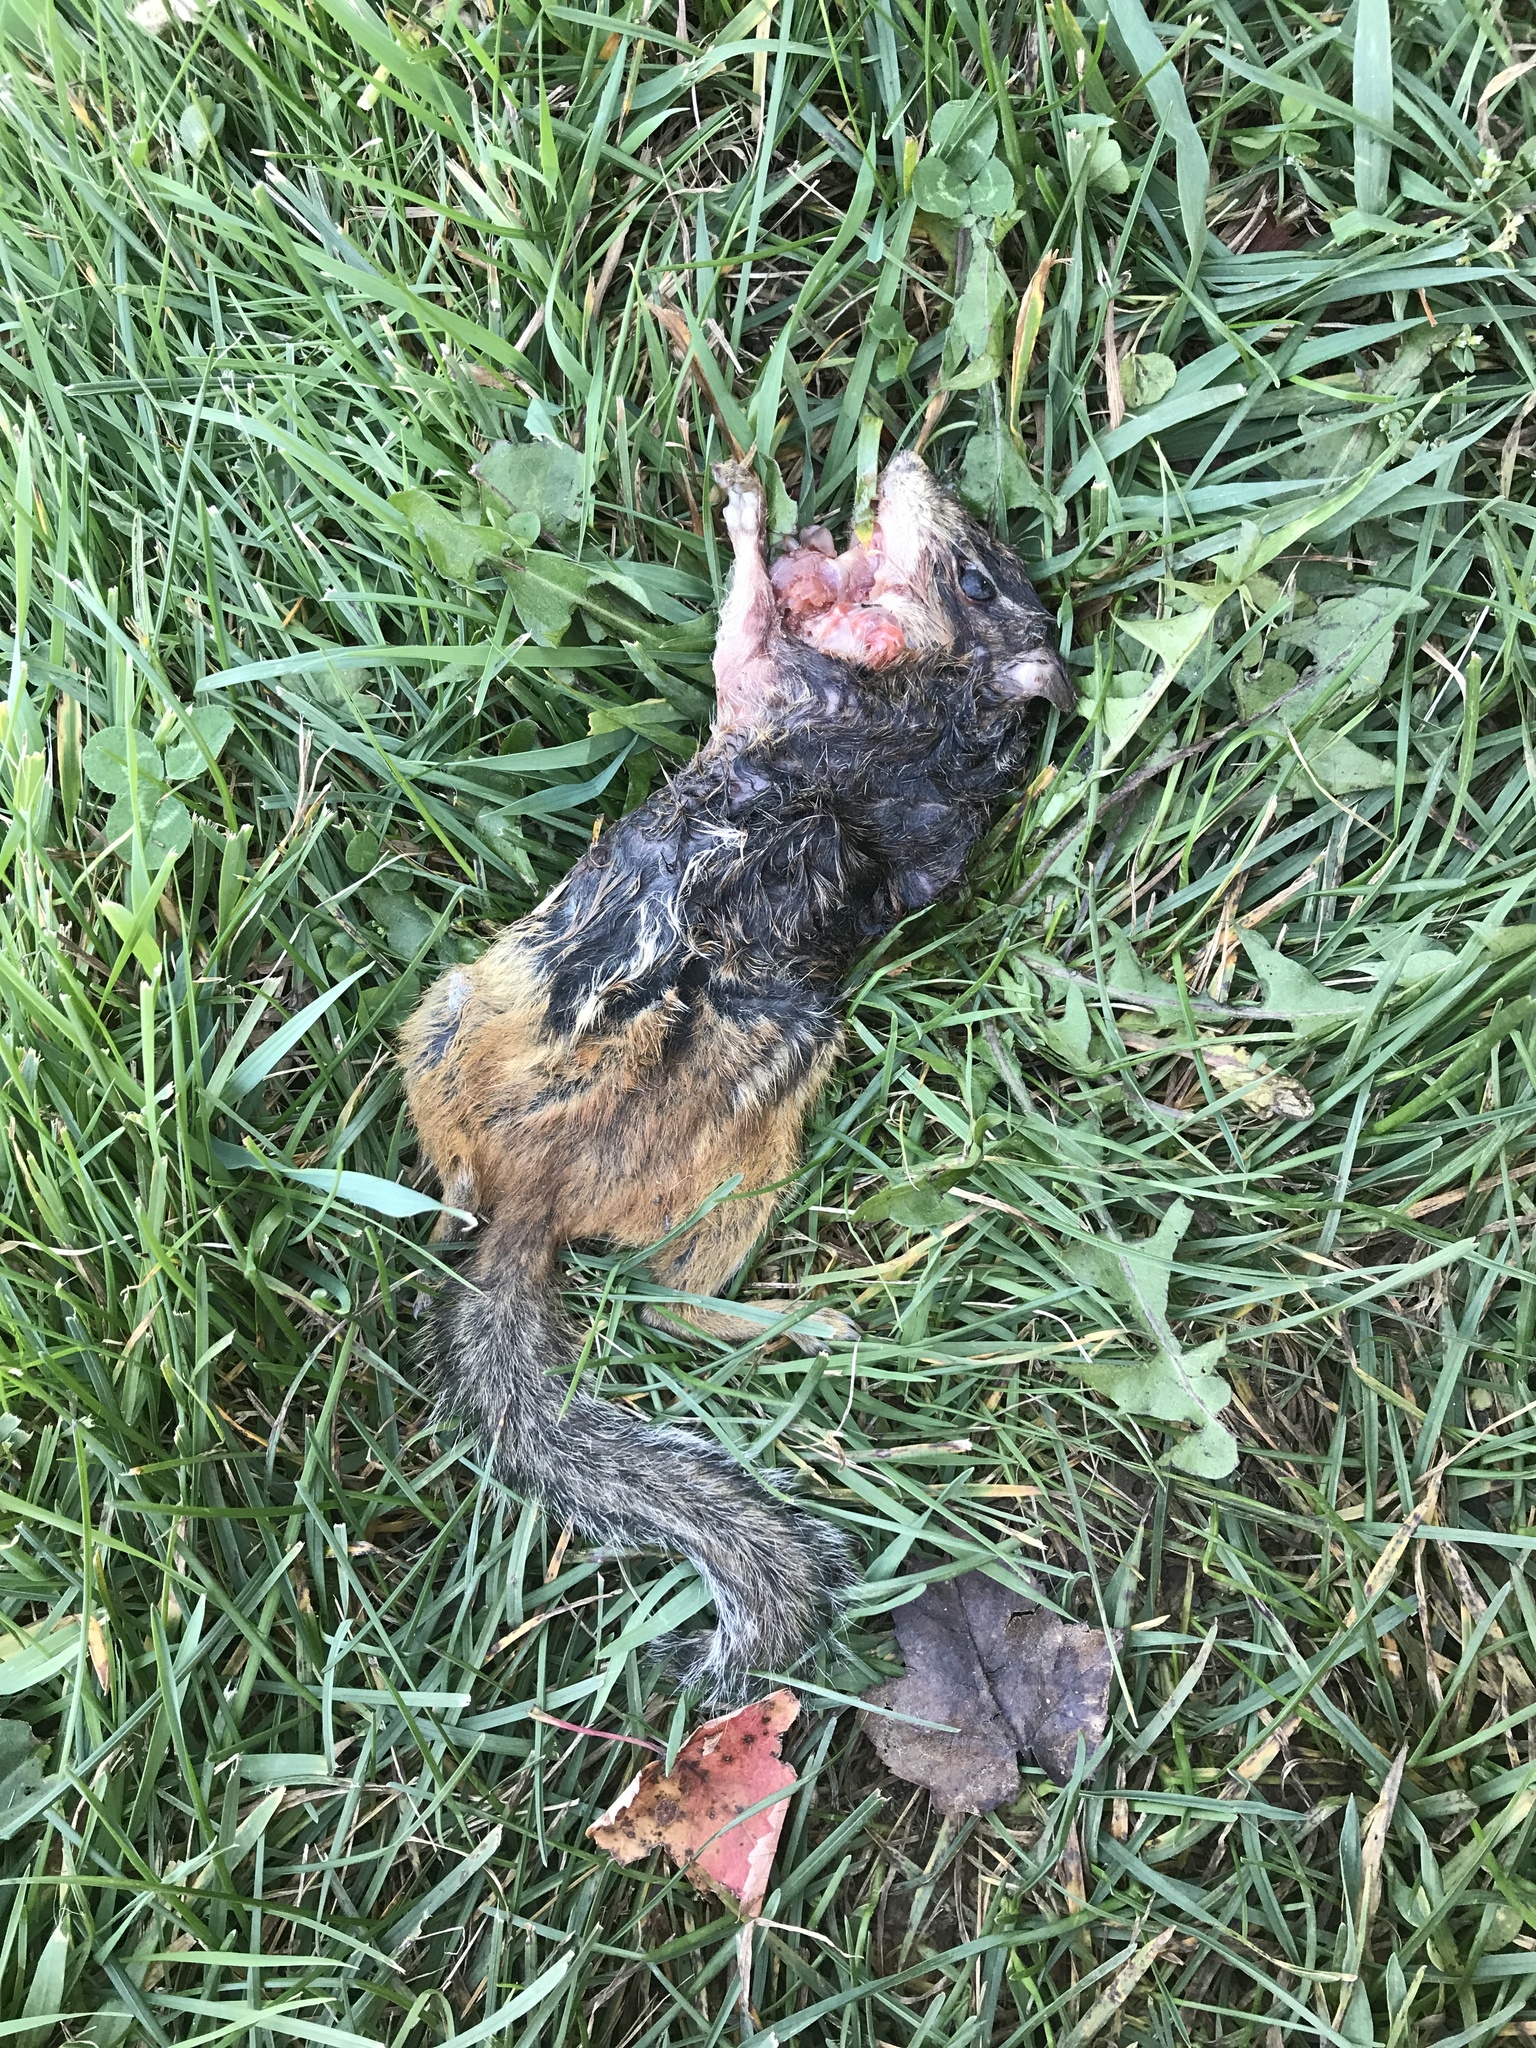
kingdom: Animalia
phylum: Chordata
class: Mammalia
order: Rodentia
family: Sciuridae
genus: Tamias
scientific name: Tamias striatus
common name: Eastern chipmunk
